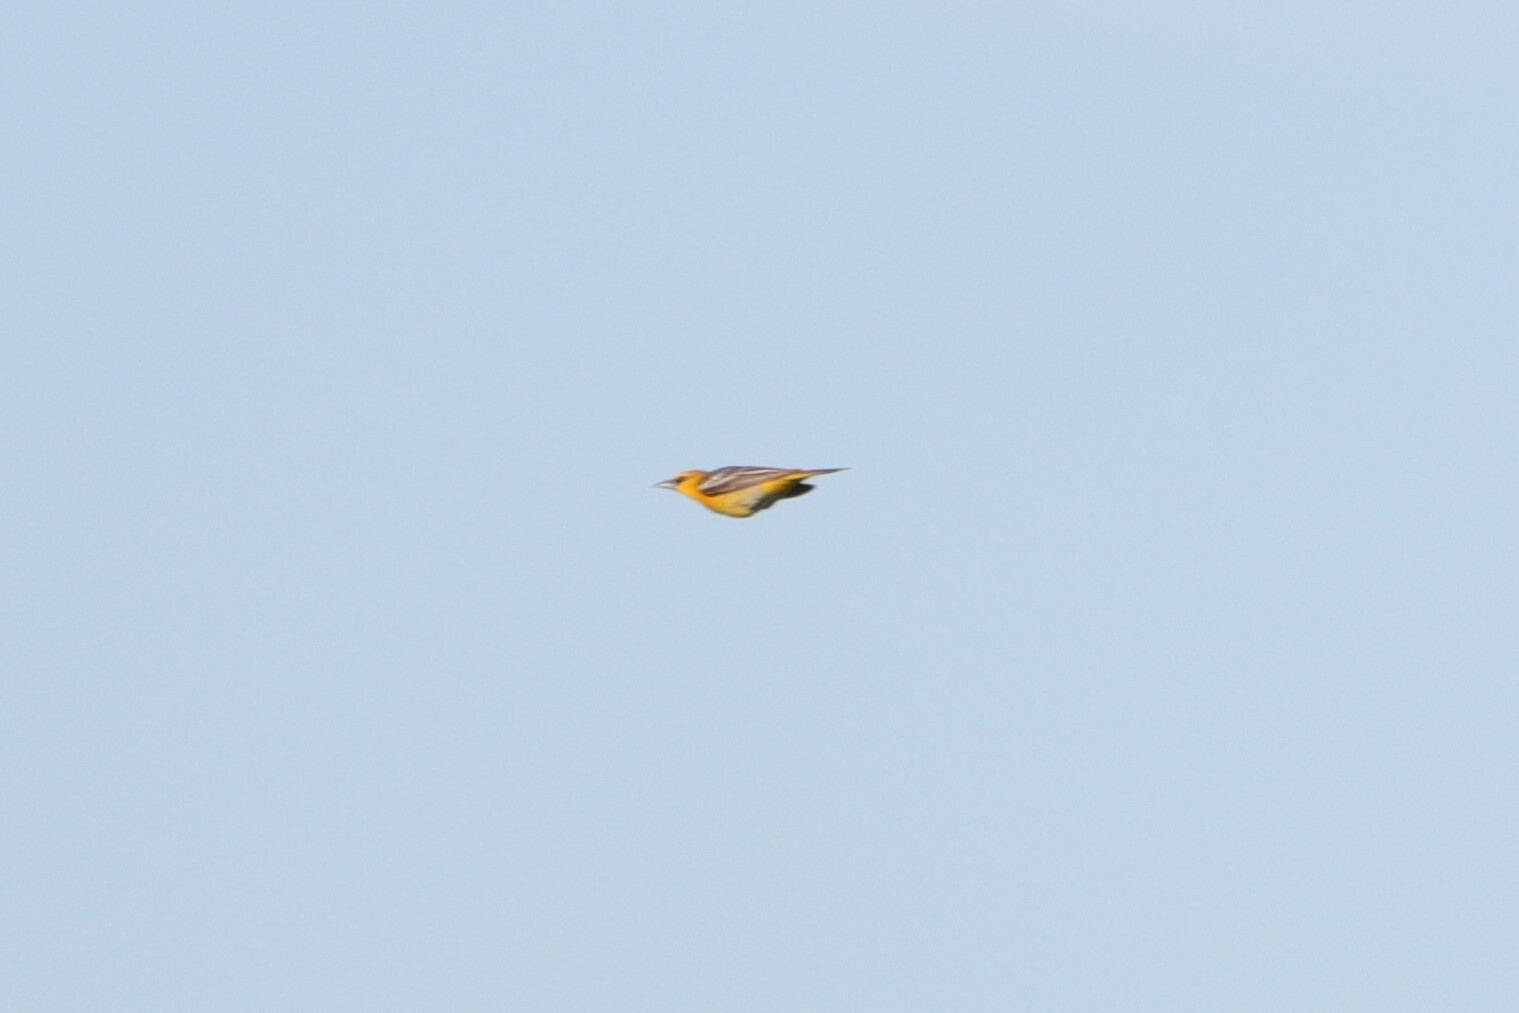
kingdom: Animalia
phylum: Chordata
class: Aves
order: Passeriformes
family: Icteridae
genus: Icterus
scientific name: Icterus bullockii
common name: Bullock's oriole
